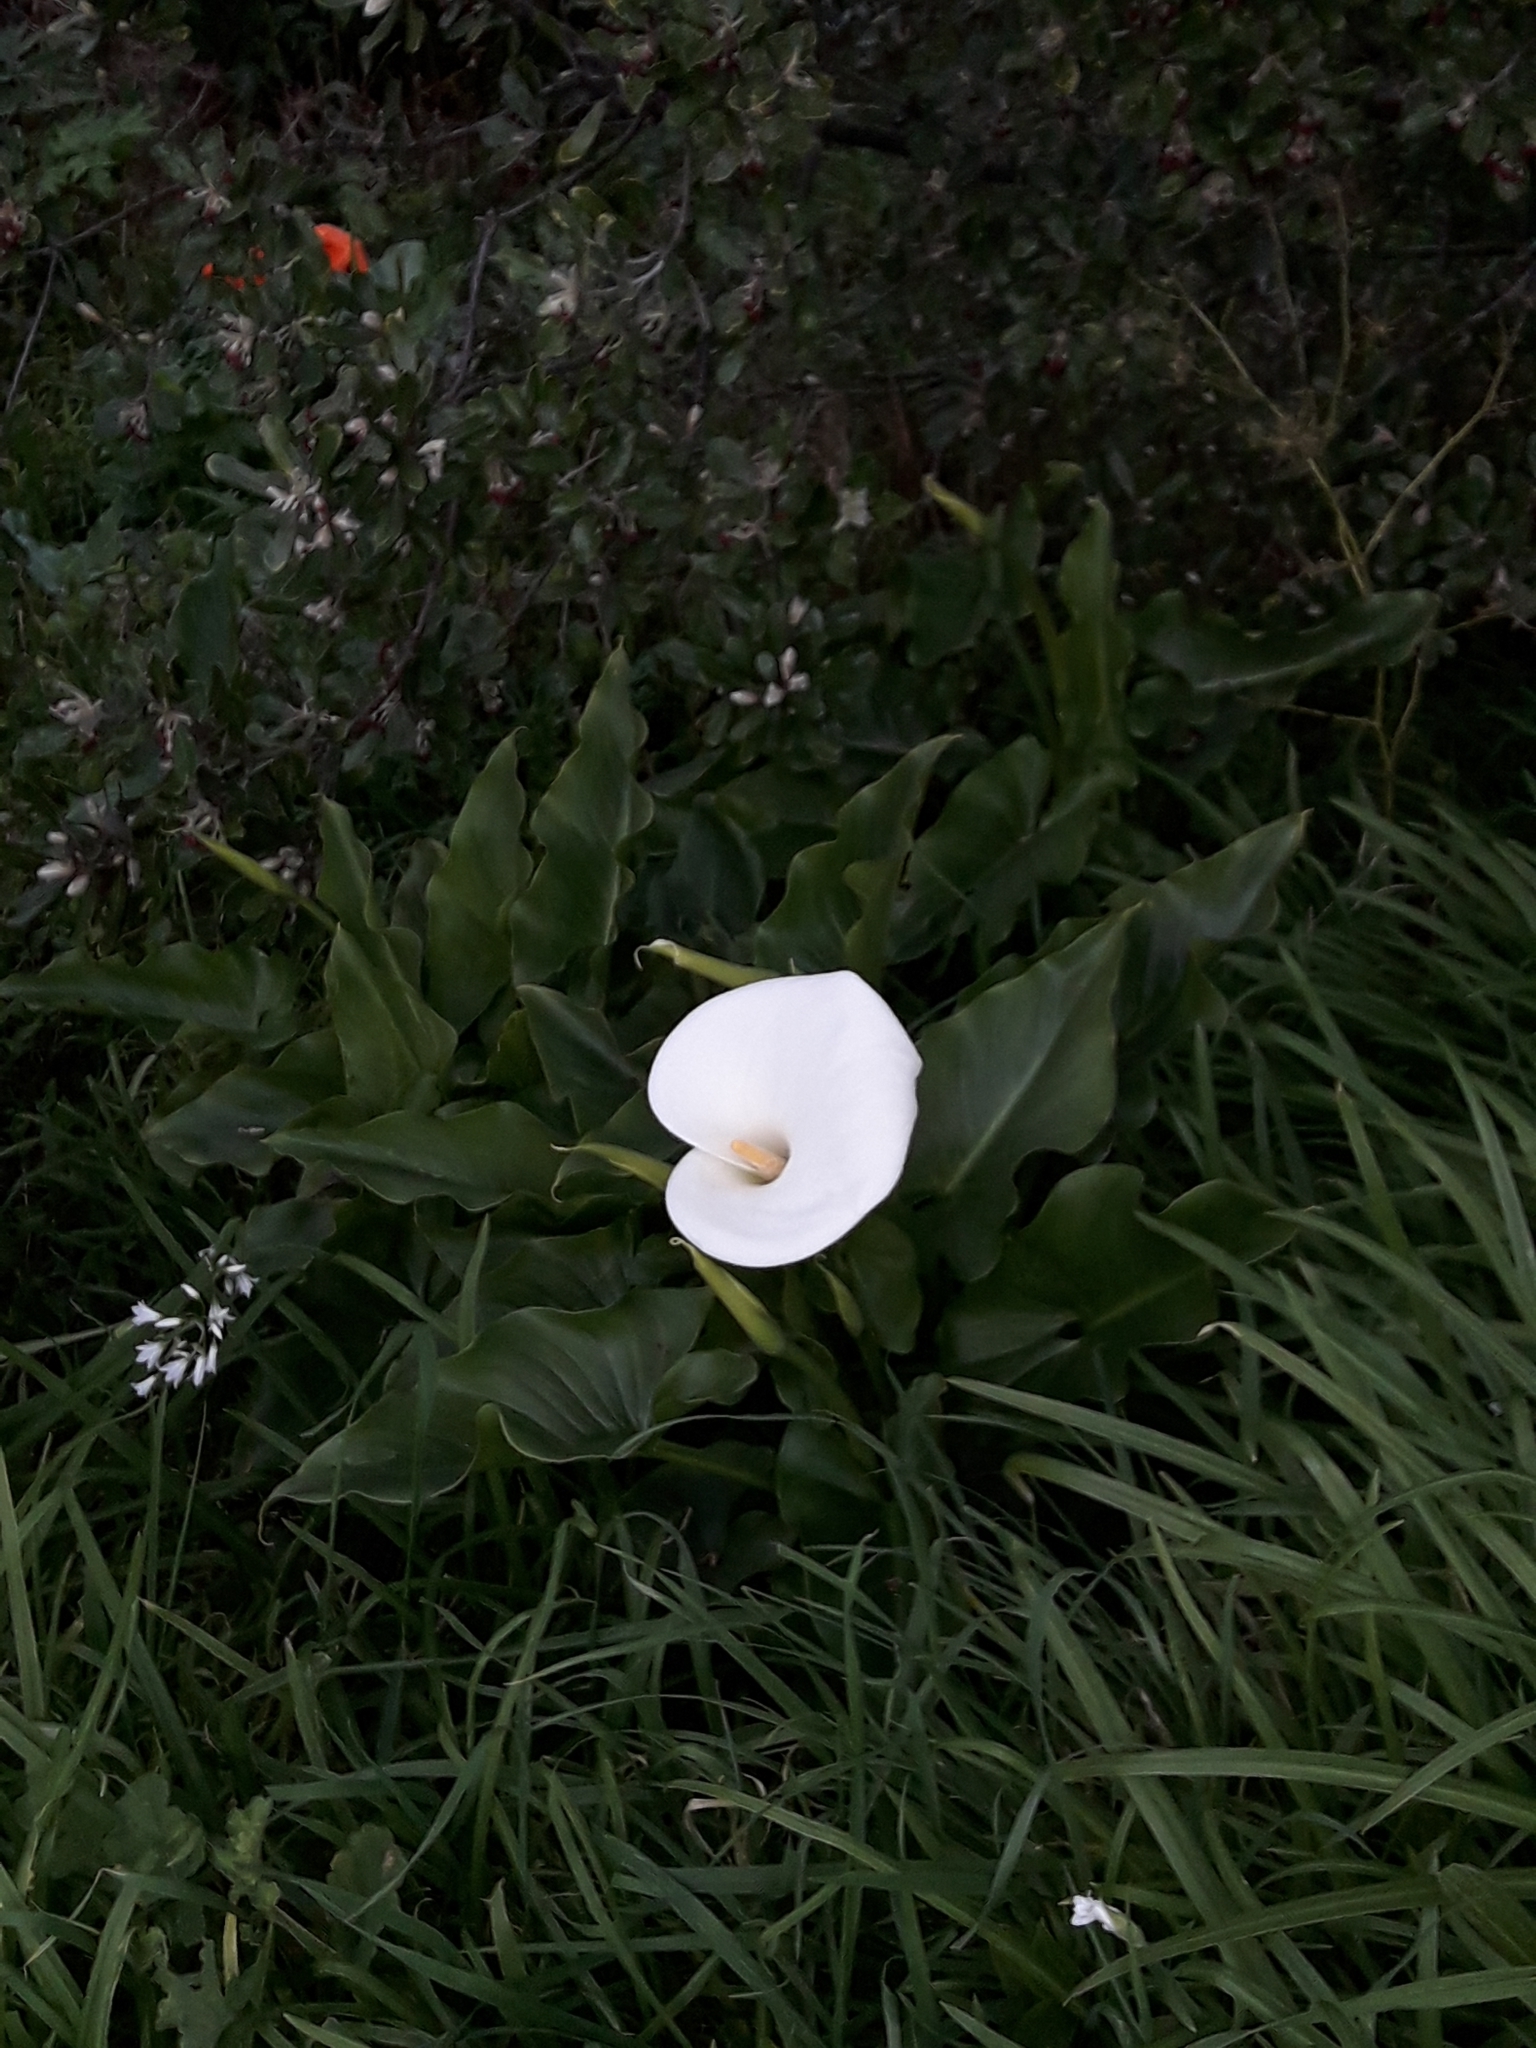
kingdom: Plantae
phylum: Tracheophyta
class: Liliopsida
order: Alismatales
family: Araceae
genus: Zantedeschia
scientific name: Zantedeschia aethiopica
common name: Altar-lily
